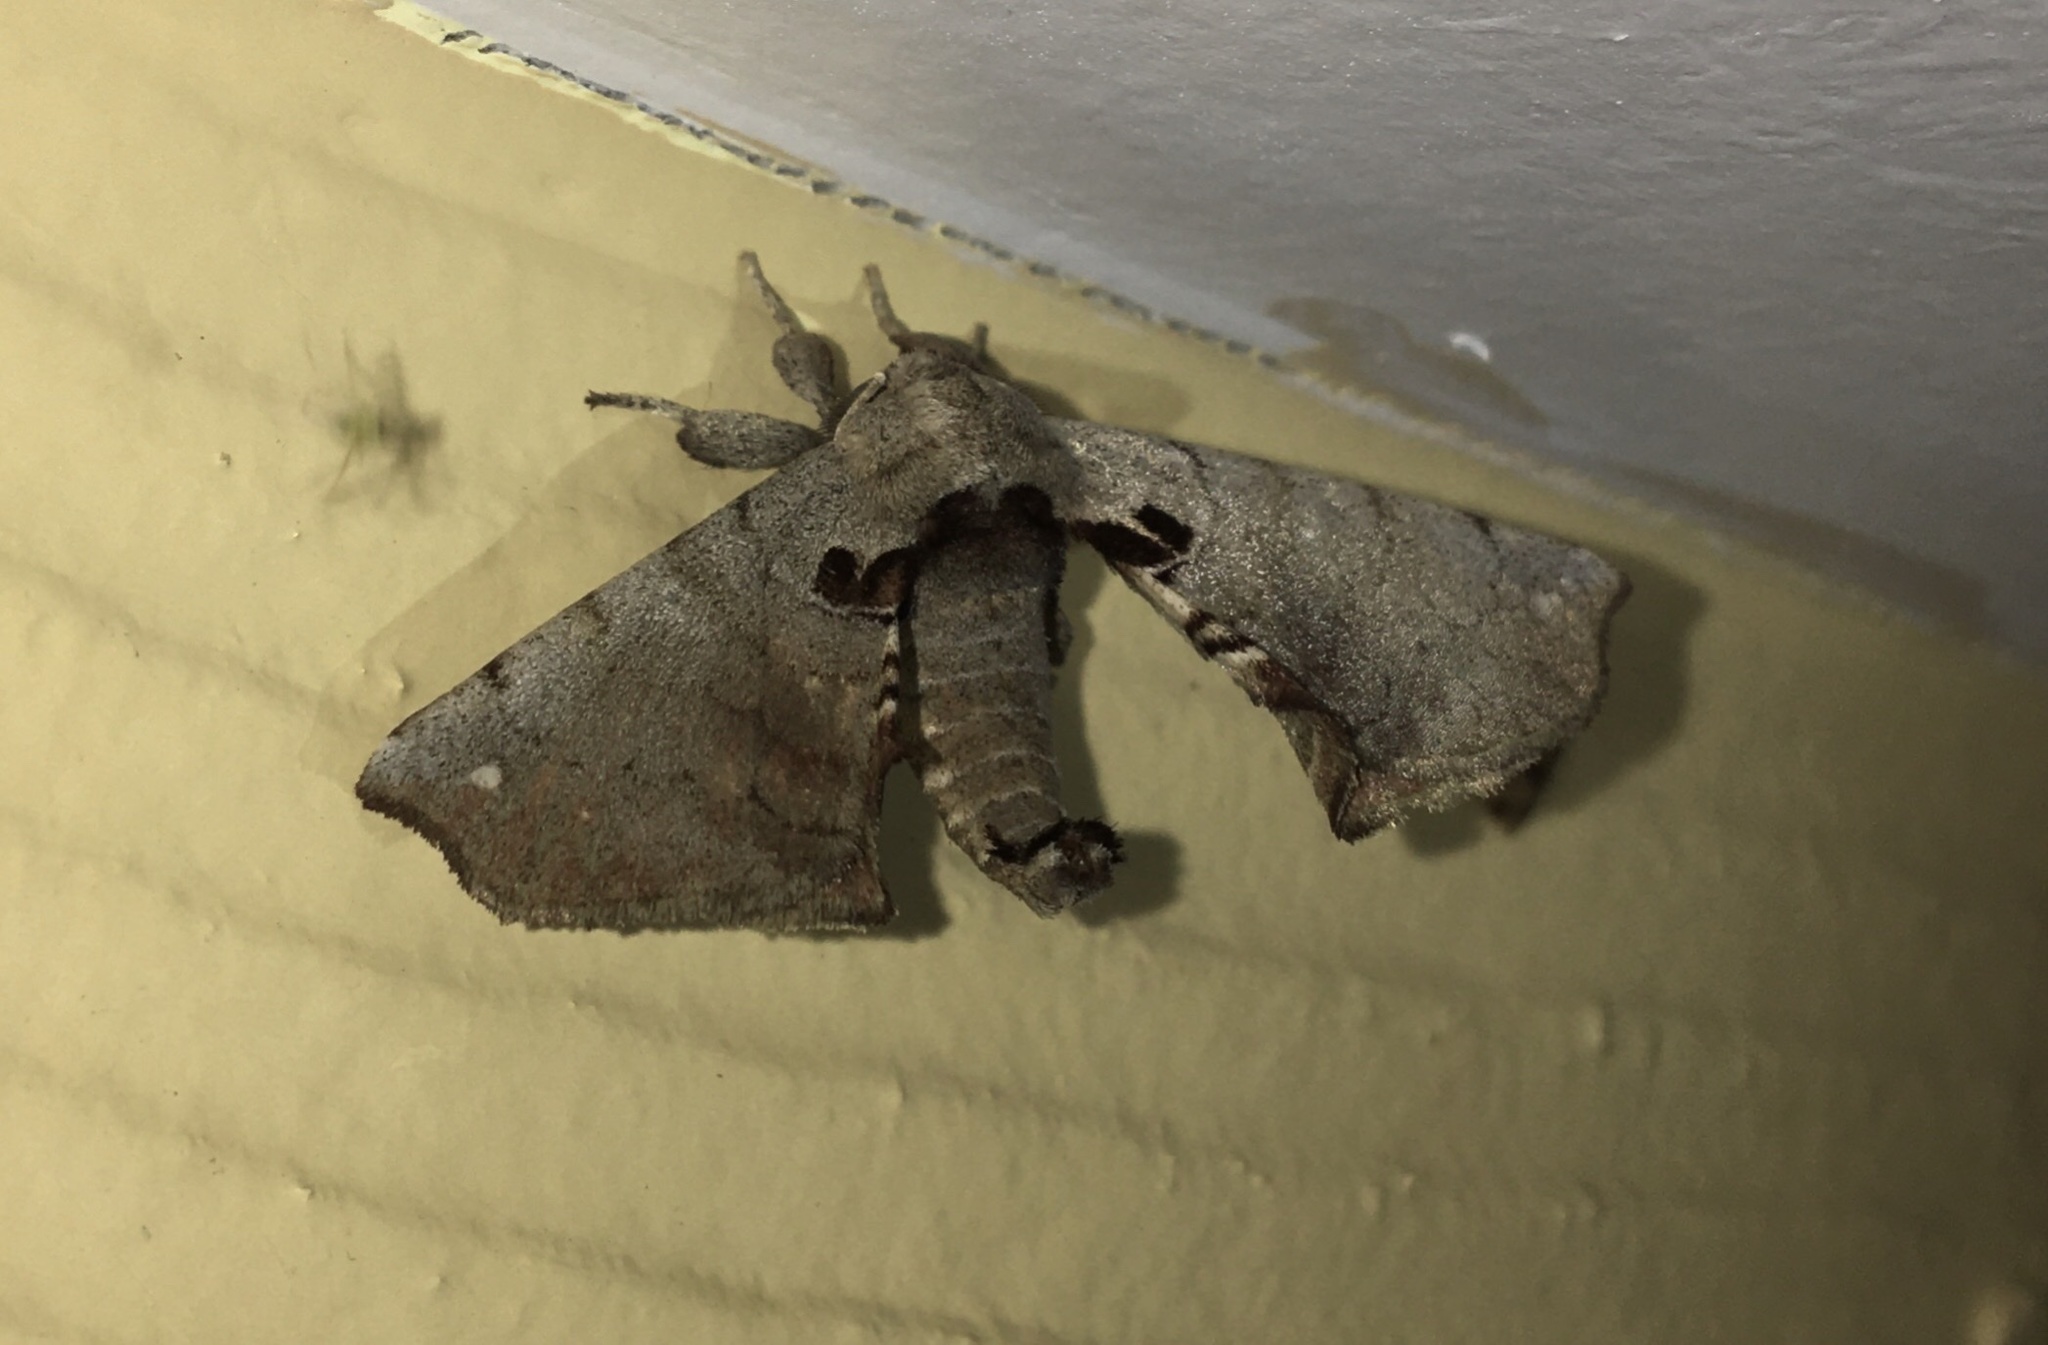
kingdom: Animalia
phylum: Arthropoda
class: Insecta
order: Lepidoptera
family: Apatelodidae
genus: Hygrochroa
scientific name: Hygrochroa Apatelodes torrefacta
